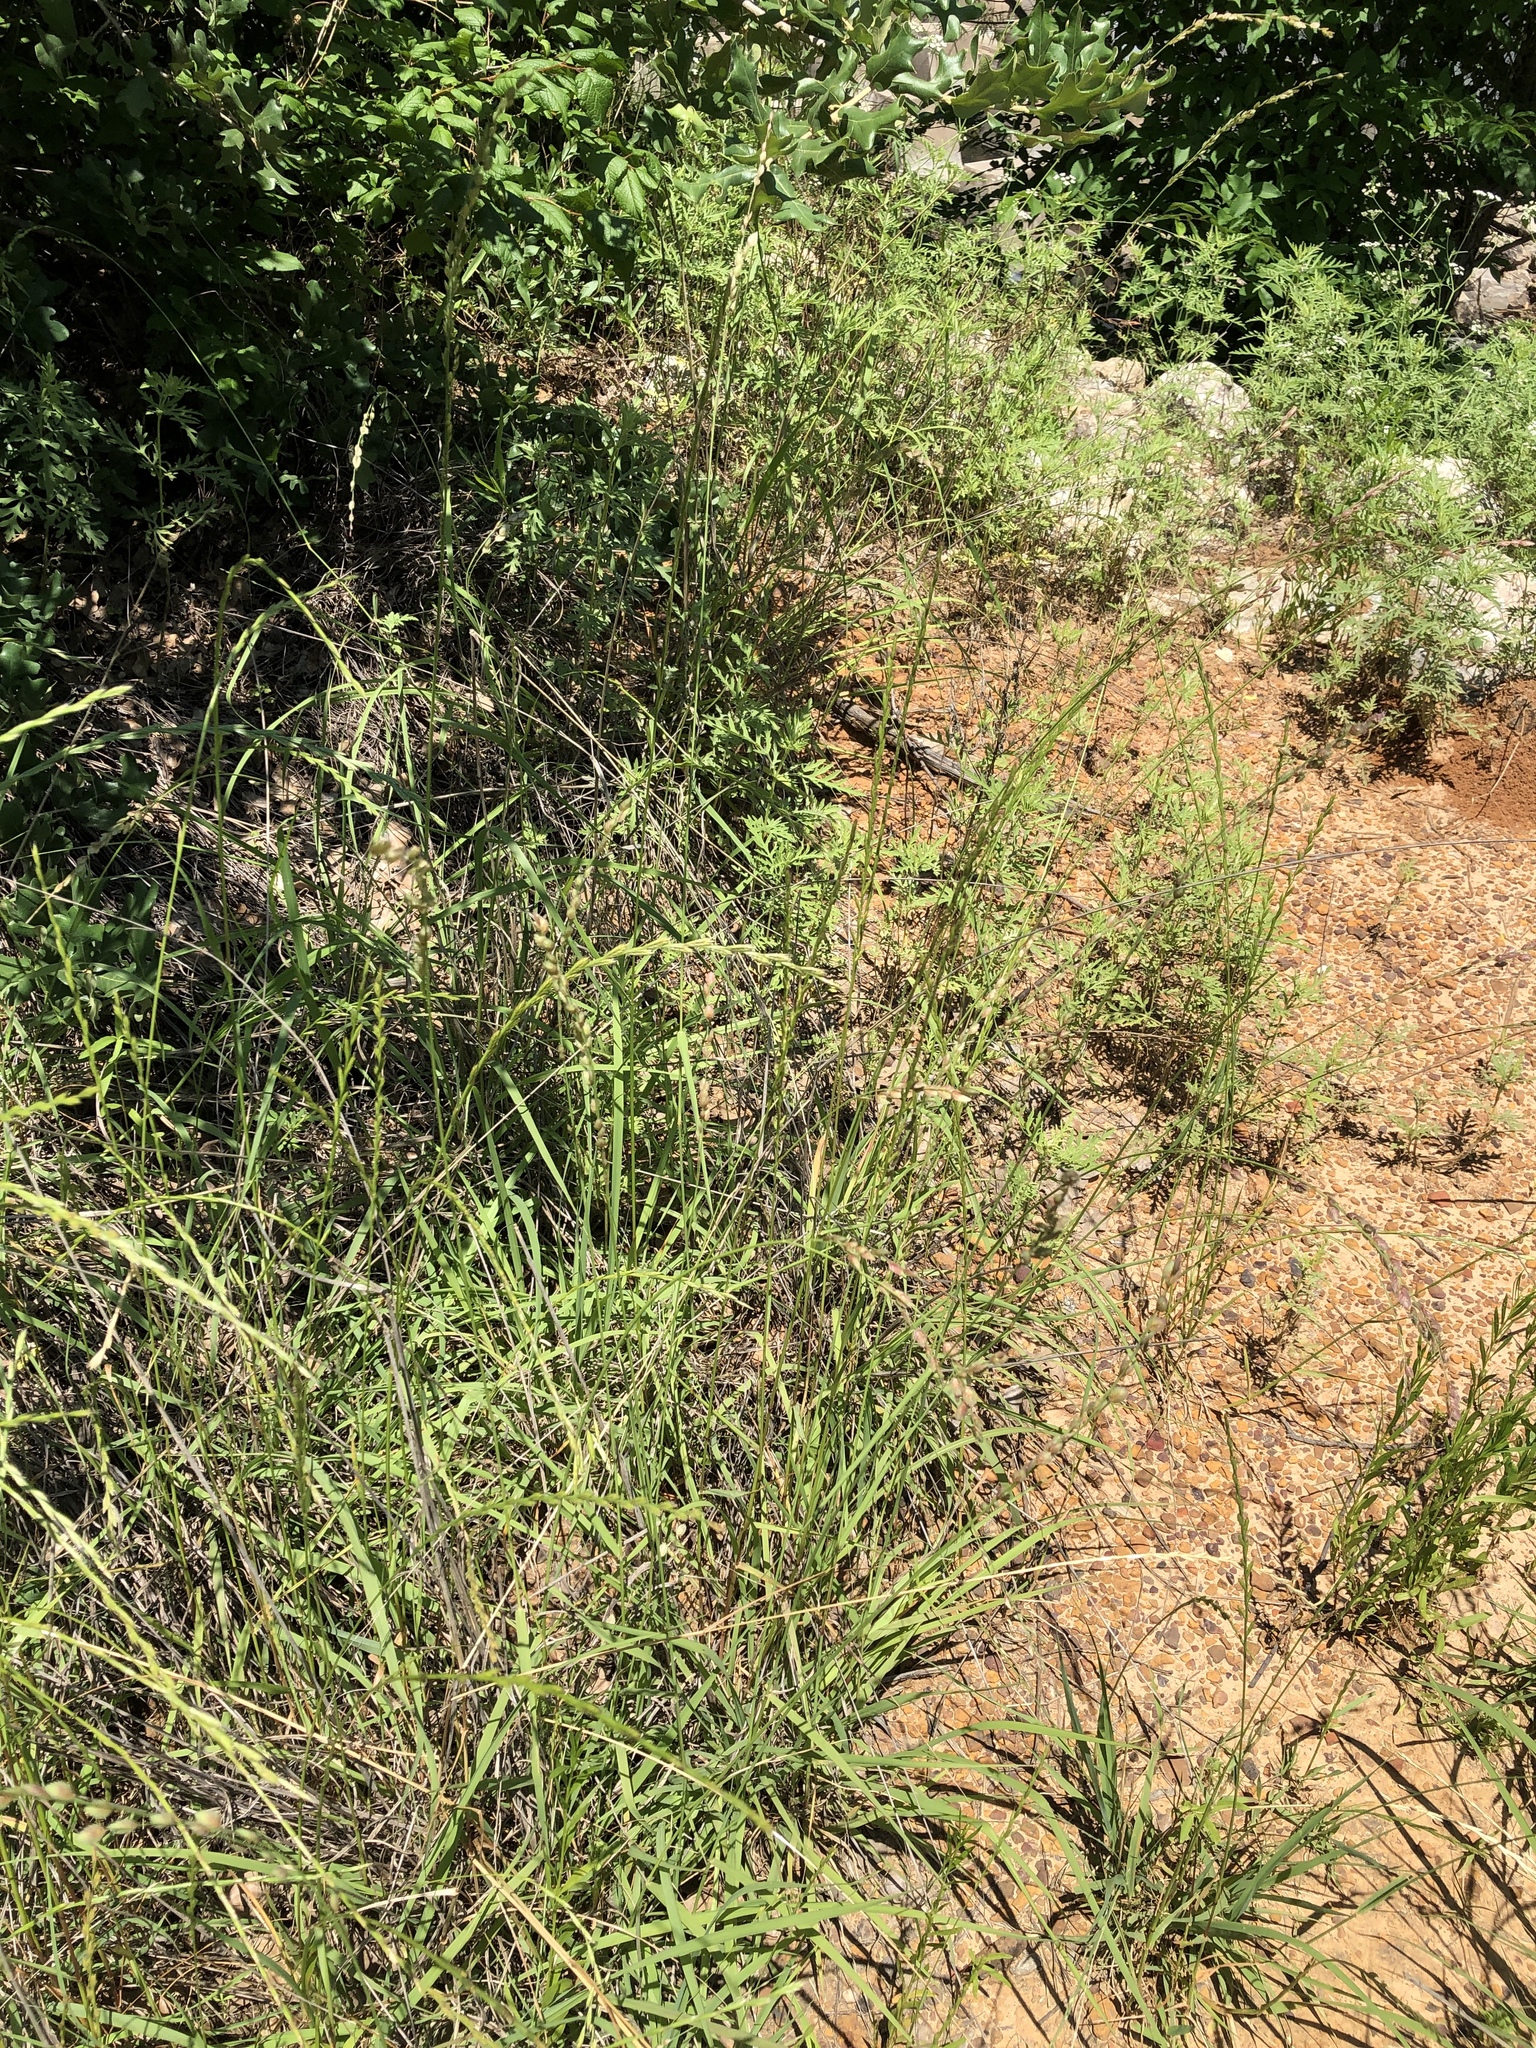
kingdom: Plantae
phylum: Tracheophyta
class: Liliopsida
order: Poales
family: Poaceae
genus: Eragrostis
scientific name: Eragrostis superba
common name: Wilman lovegrass
